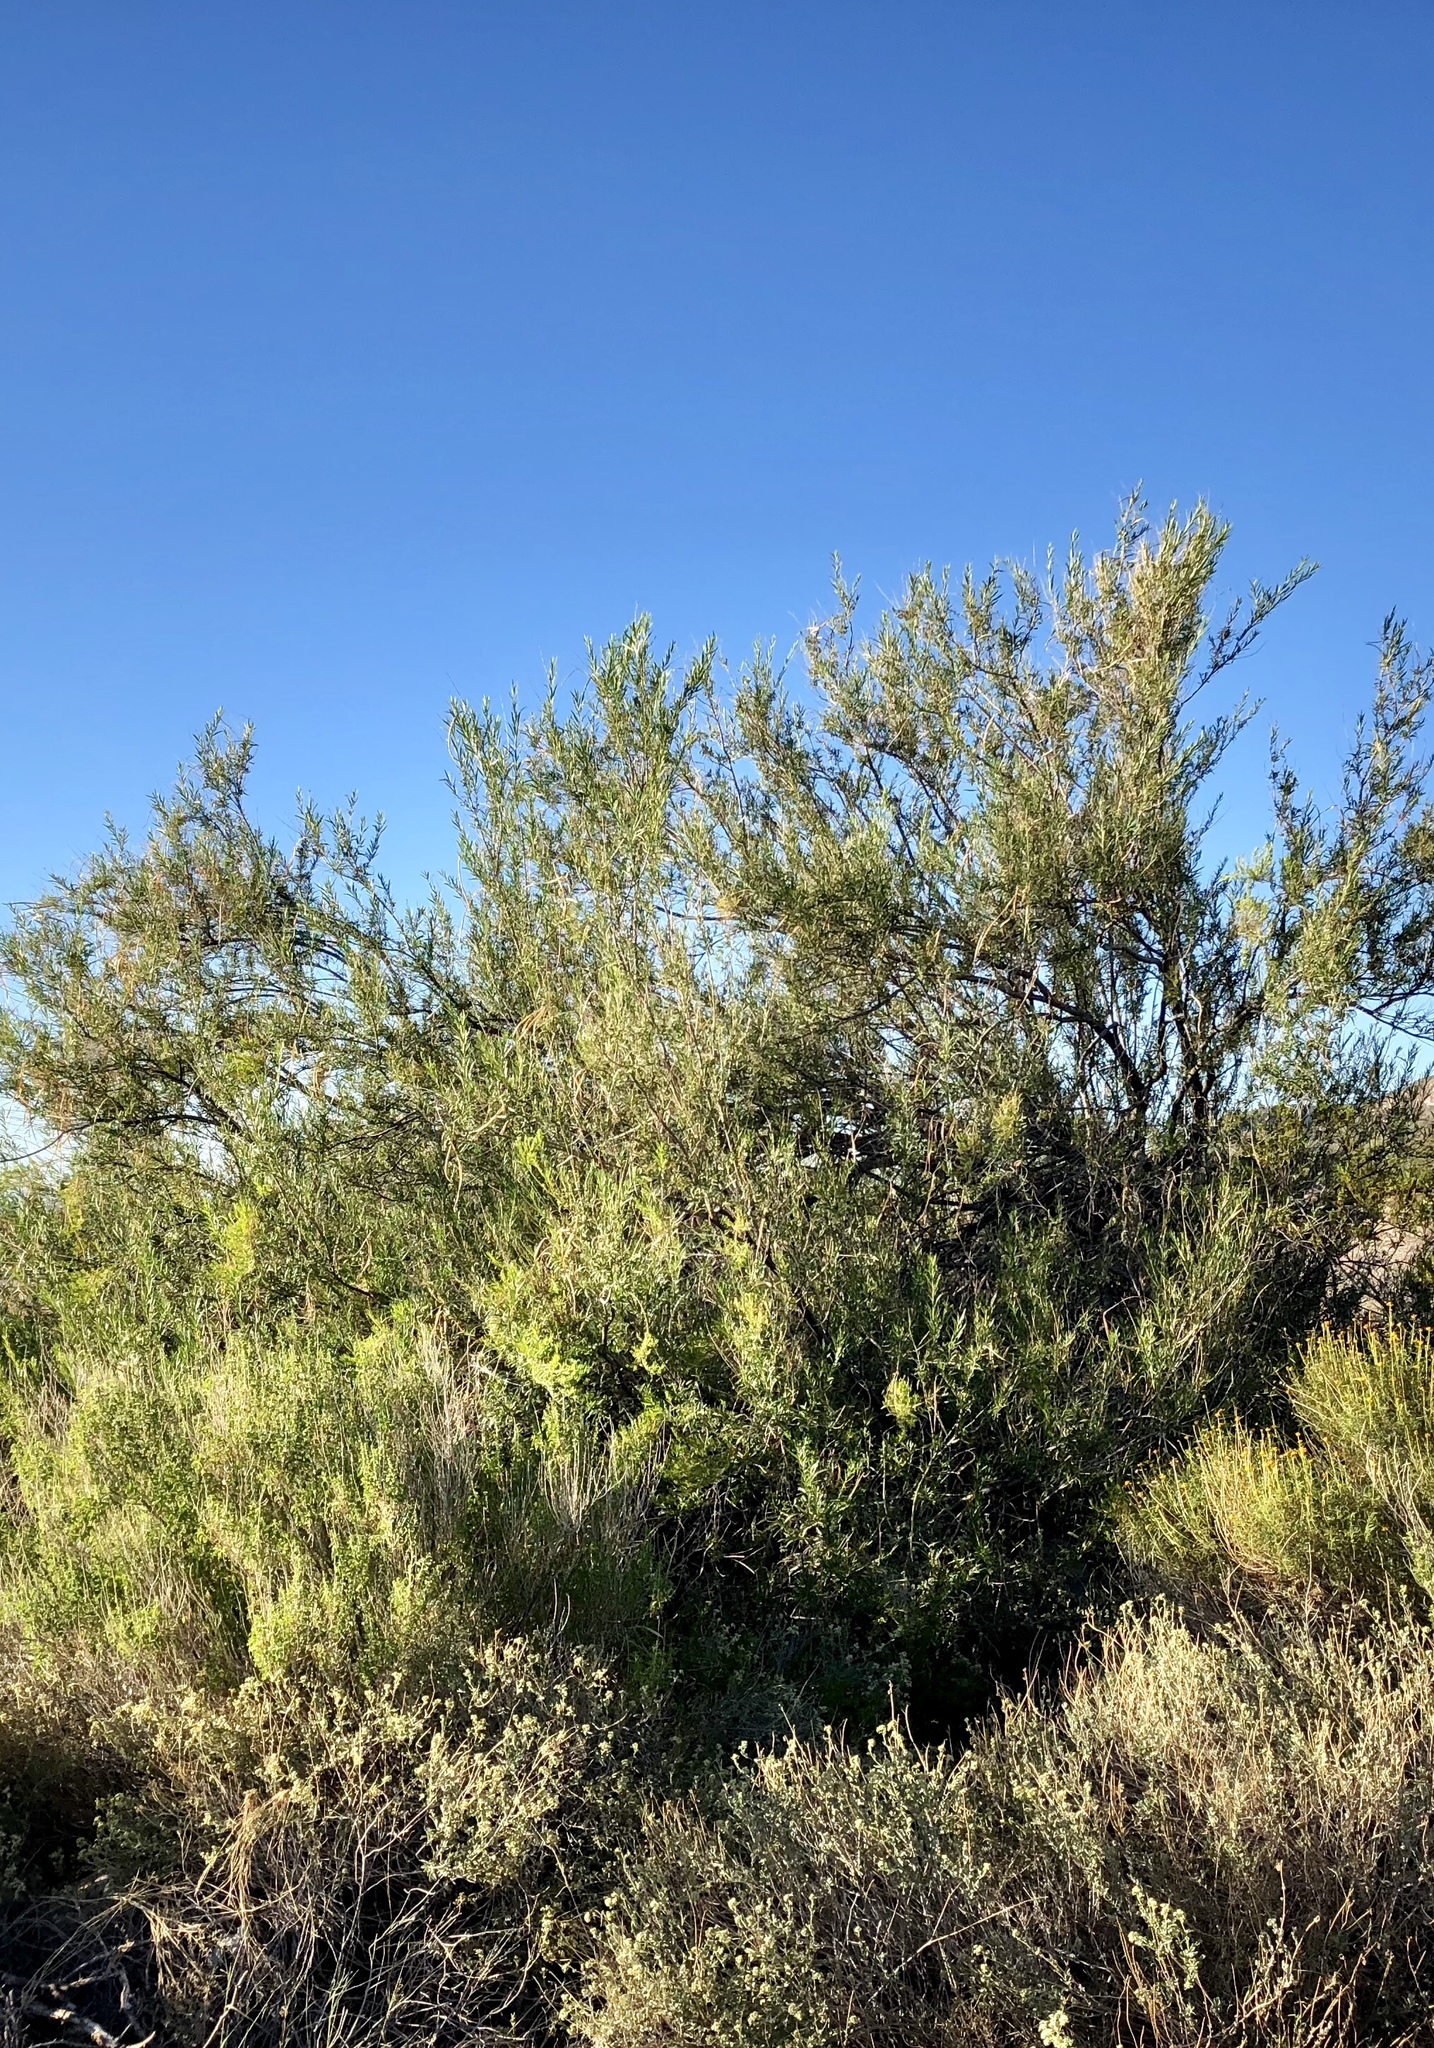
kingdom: Plantae
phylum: Tracheophyta
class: Magnoliopsida
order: Lamiales
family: Bignoniaceae
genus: Chilopsis
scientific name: Chilopsis linearis
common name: Desert-willow
